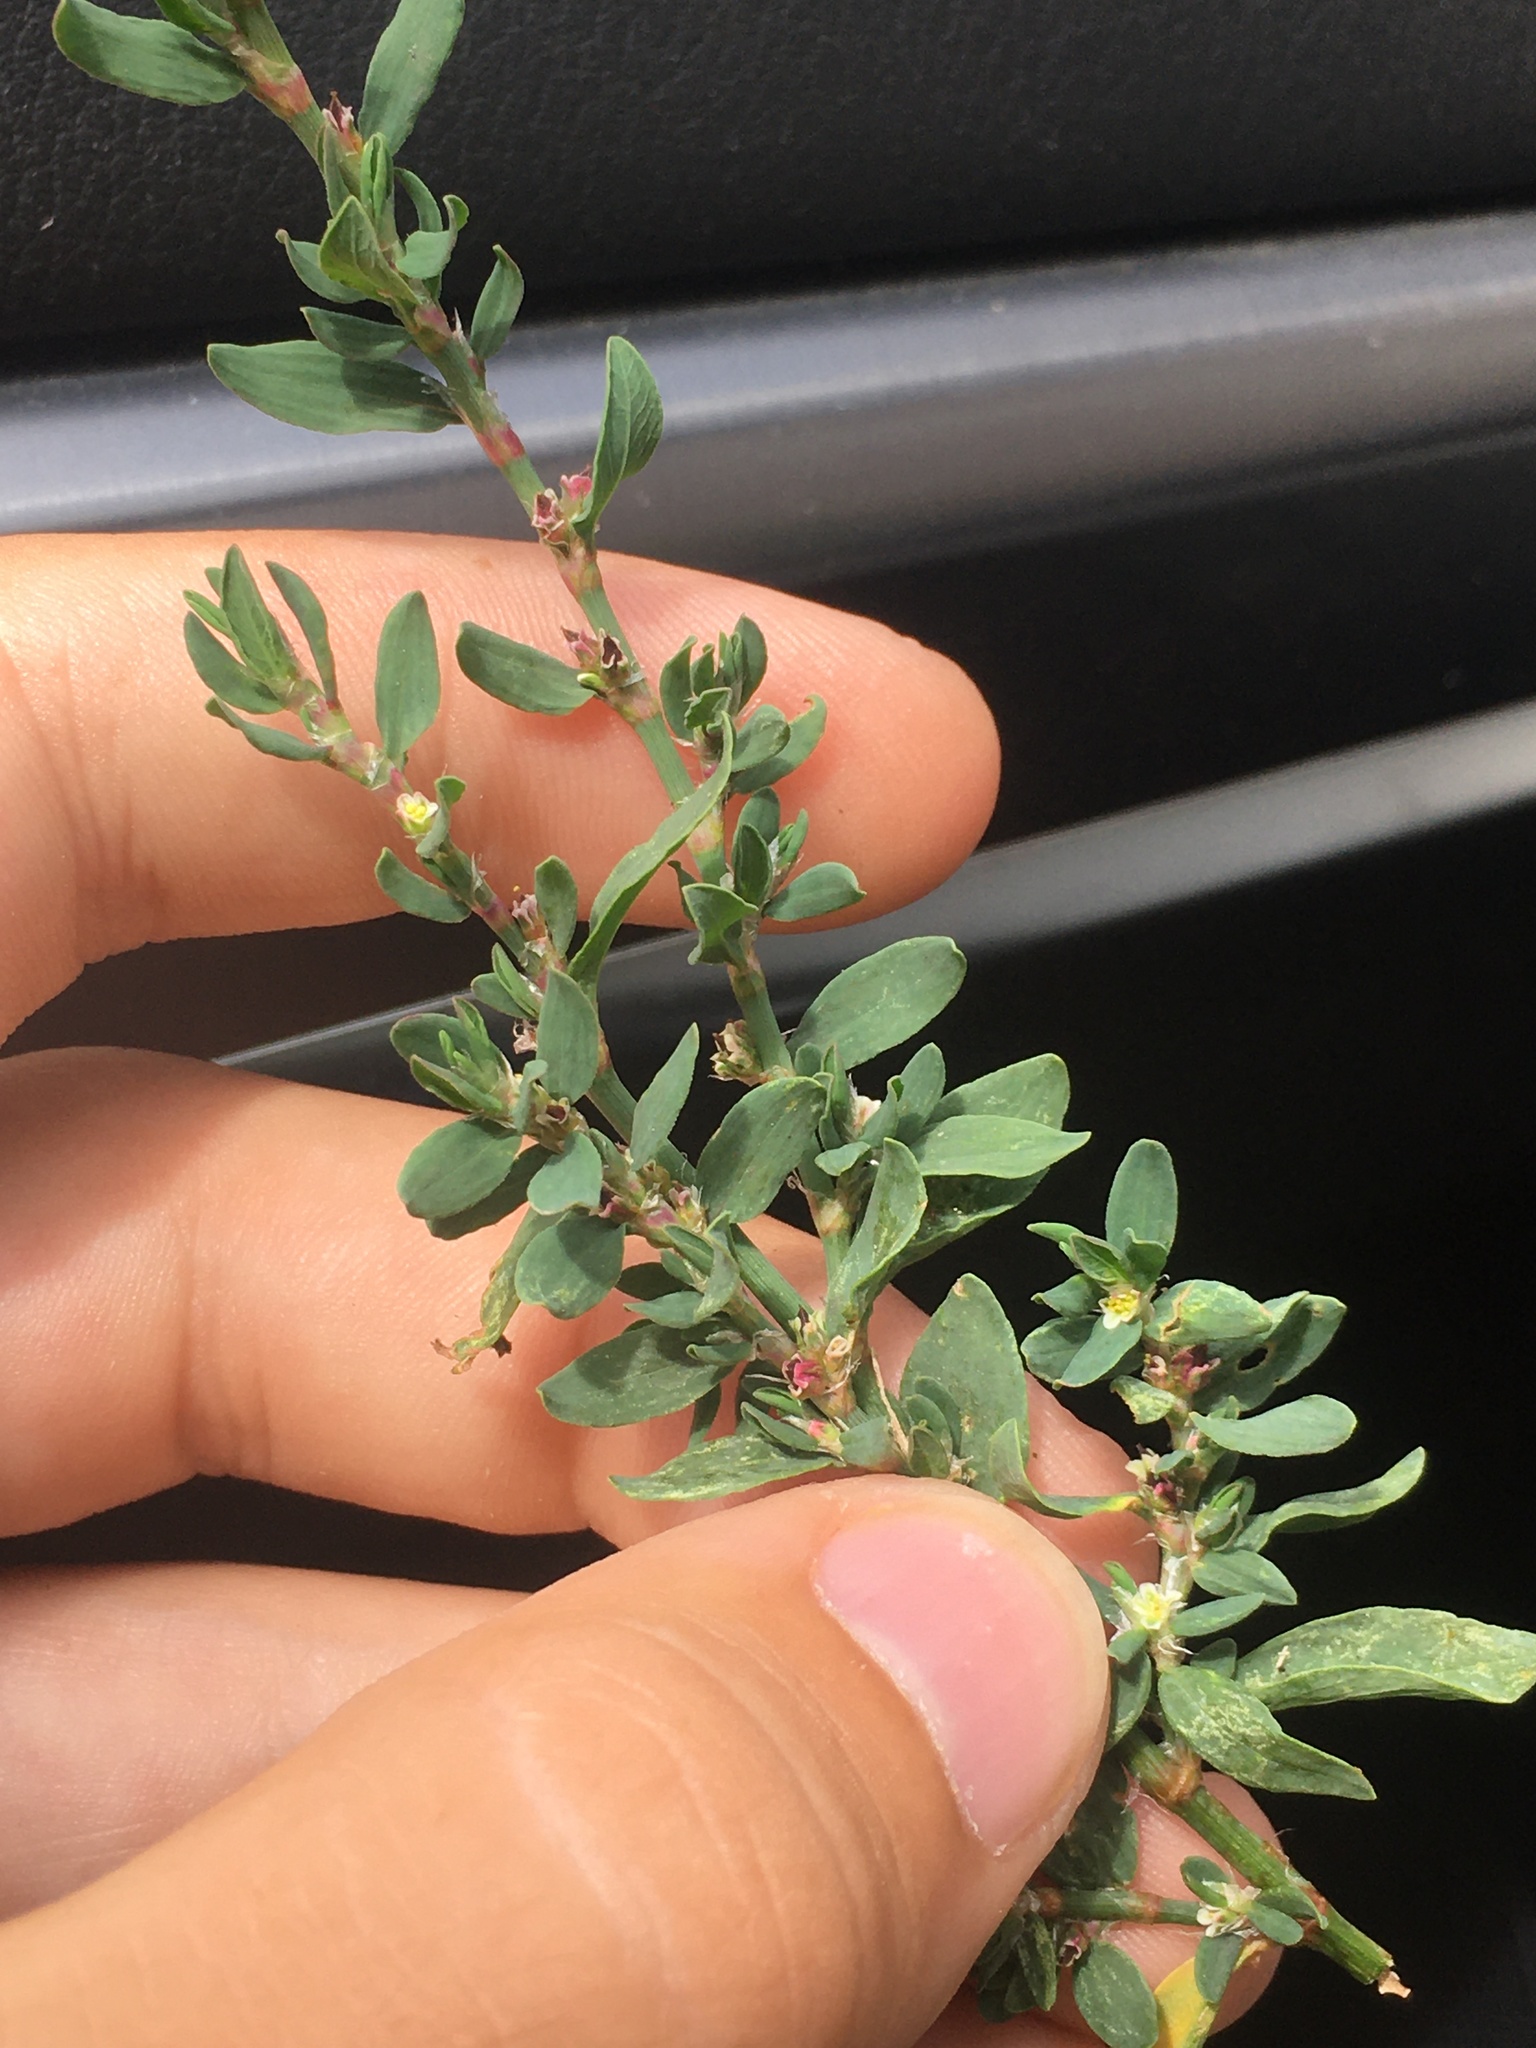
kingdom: Plantae
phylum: Tracheophyta
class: Magnoliopsida
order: Caryophyllales
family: Polygonaceae
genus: Polygonum
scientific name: Polygonum aviculare
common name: Prostrate knotweed
